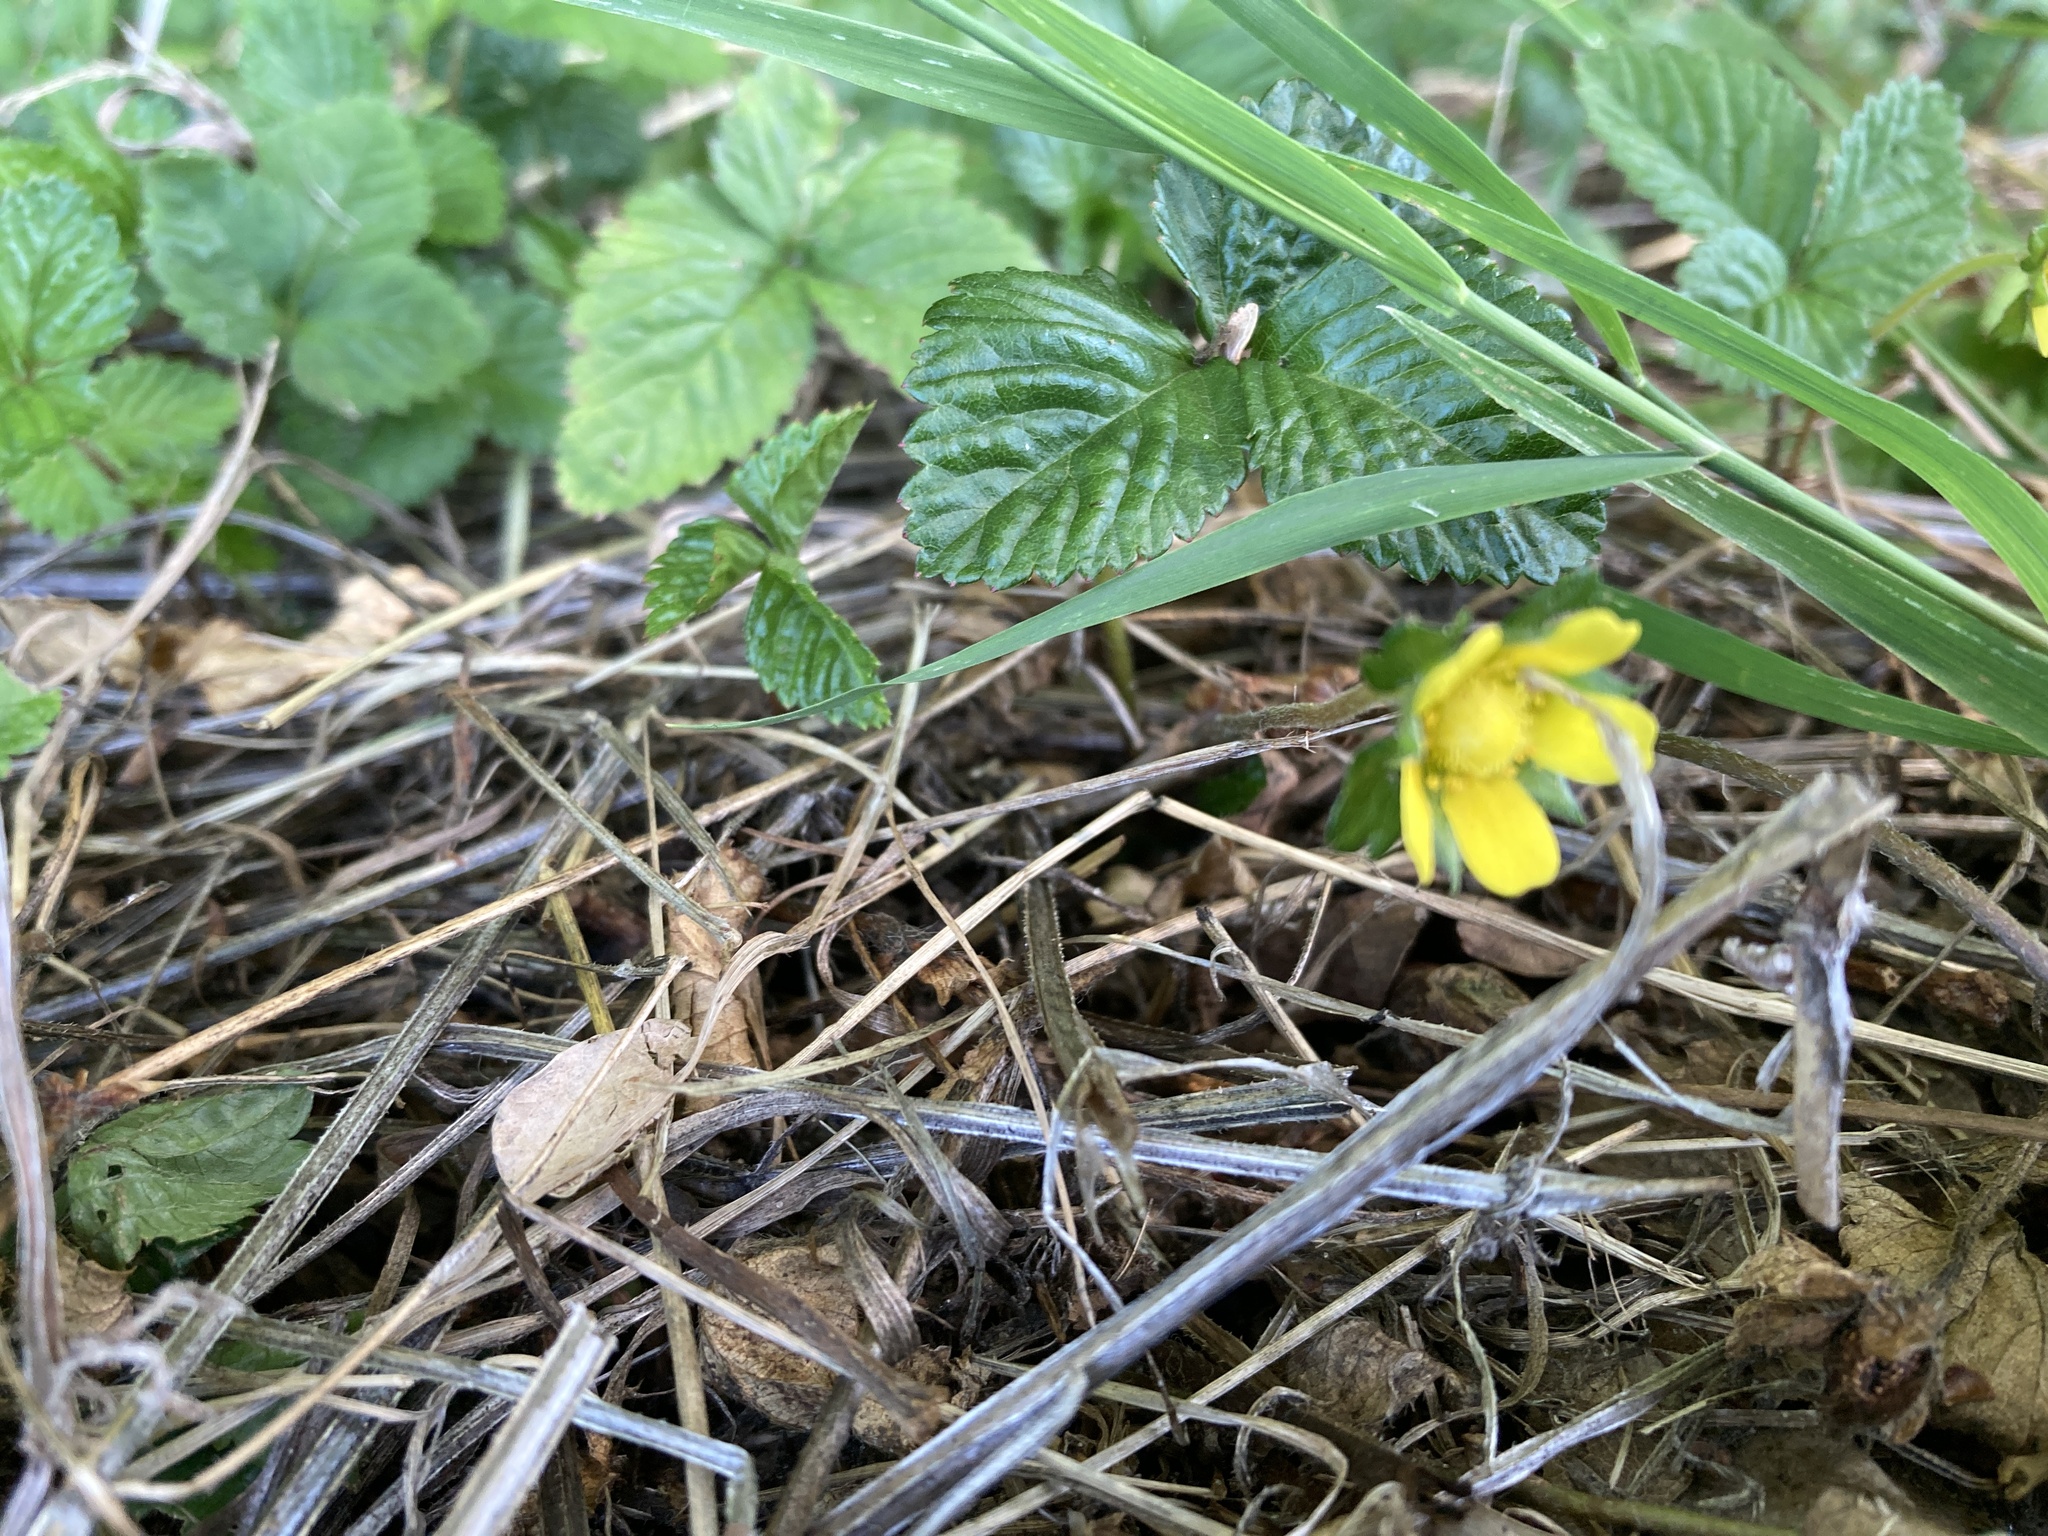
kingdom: Plantae
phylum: Tracheophyta
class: Magnoliopsida
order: Rosales
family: Rosaceae
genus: Potentilla
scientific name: Potentilla indica
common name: Yellow-flowered strawberry
